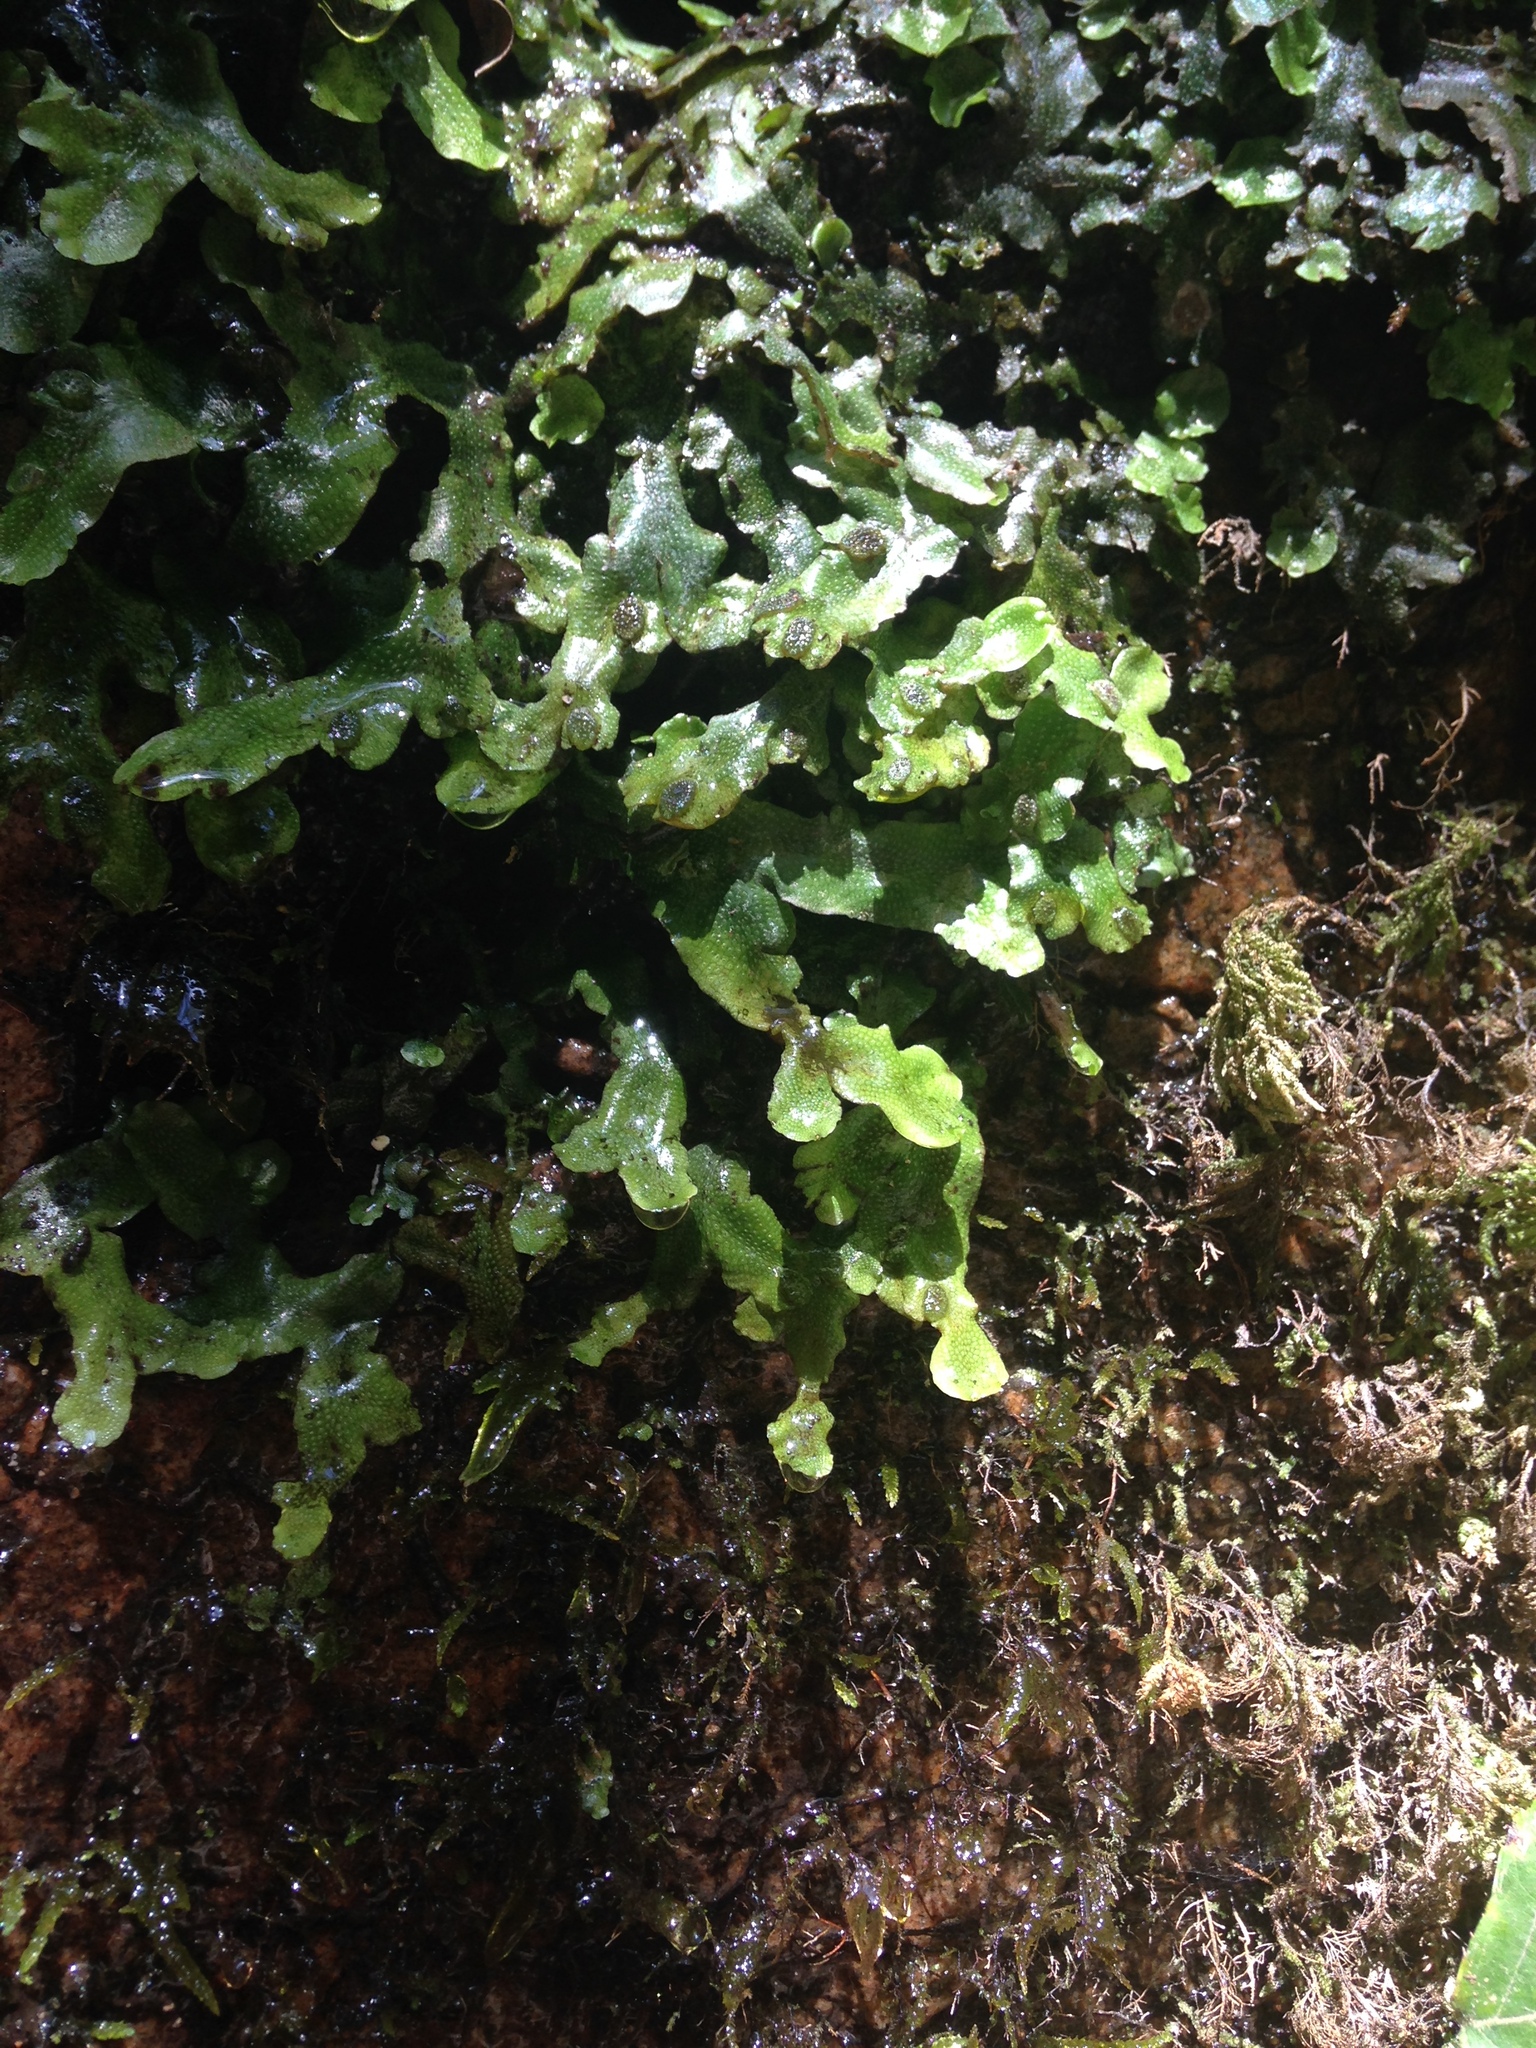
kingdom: Plantae
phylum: Marchantiophyta
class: Marchantiopsida
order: Marchantiales
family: Conocephalaceae
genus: Conocephalum
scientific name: Conocephalum conicum
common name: Great scented liverwort
